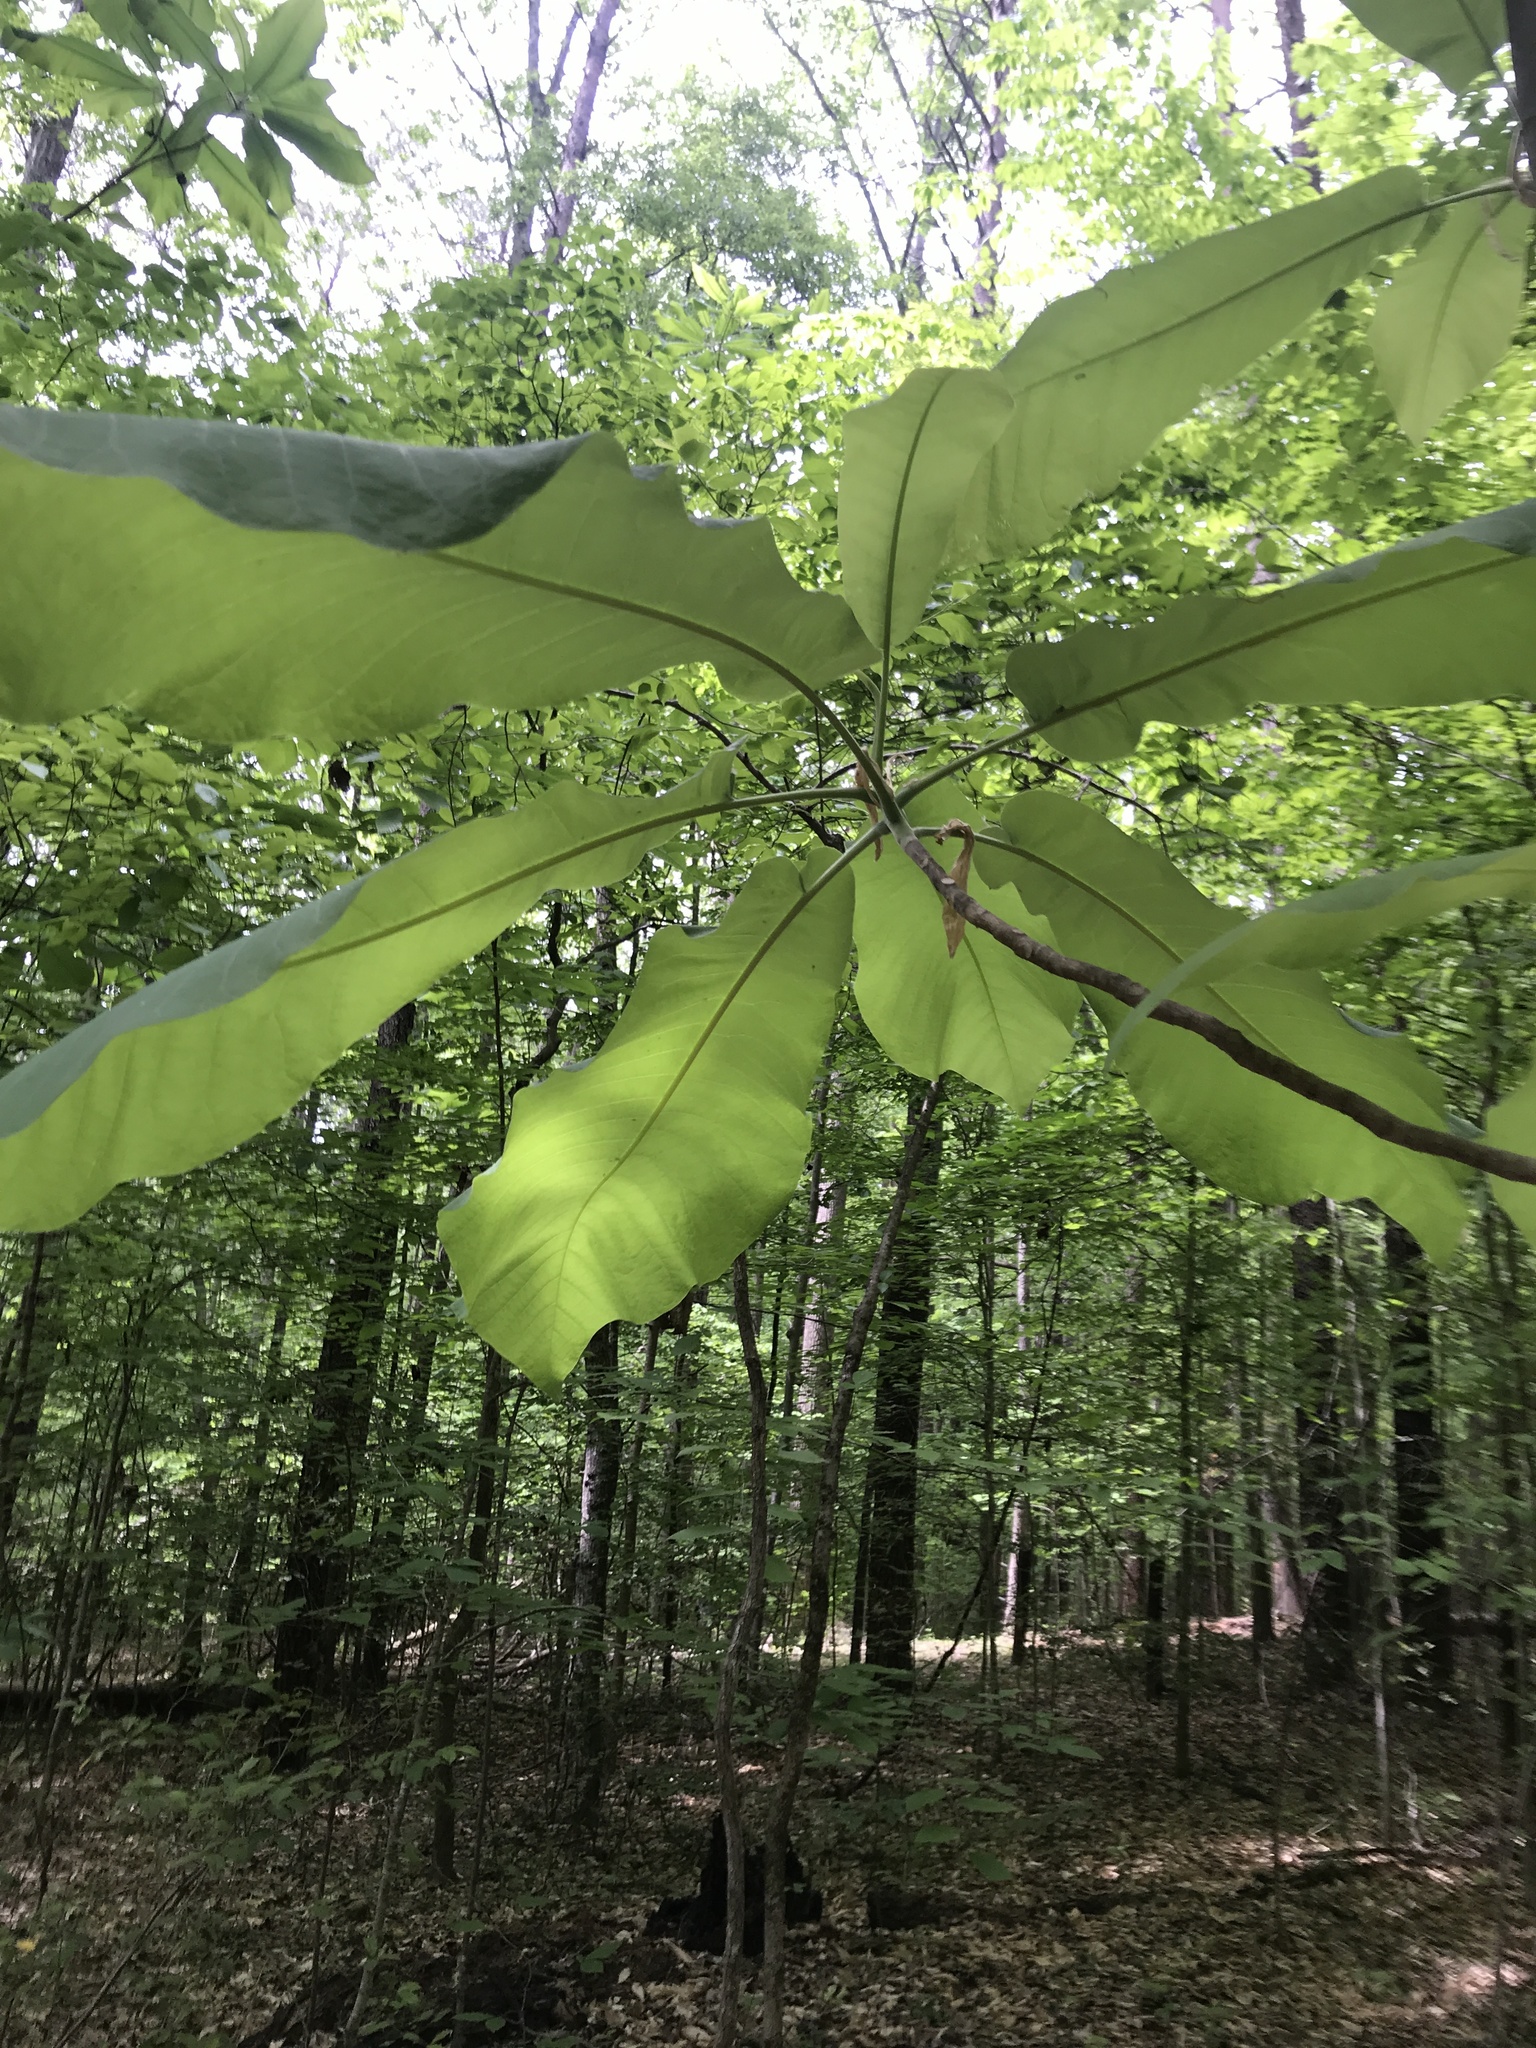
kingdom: Plantae
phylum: Tracheophyta
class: Magnoliopsida
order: Magnoliales
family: Magnoliaceae
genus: Magnolia
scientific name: Magnolia macrophylla
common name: Big-leaf magnolia
